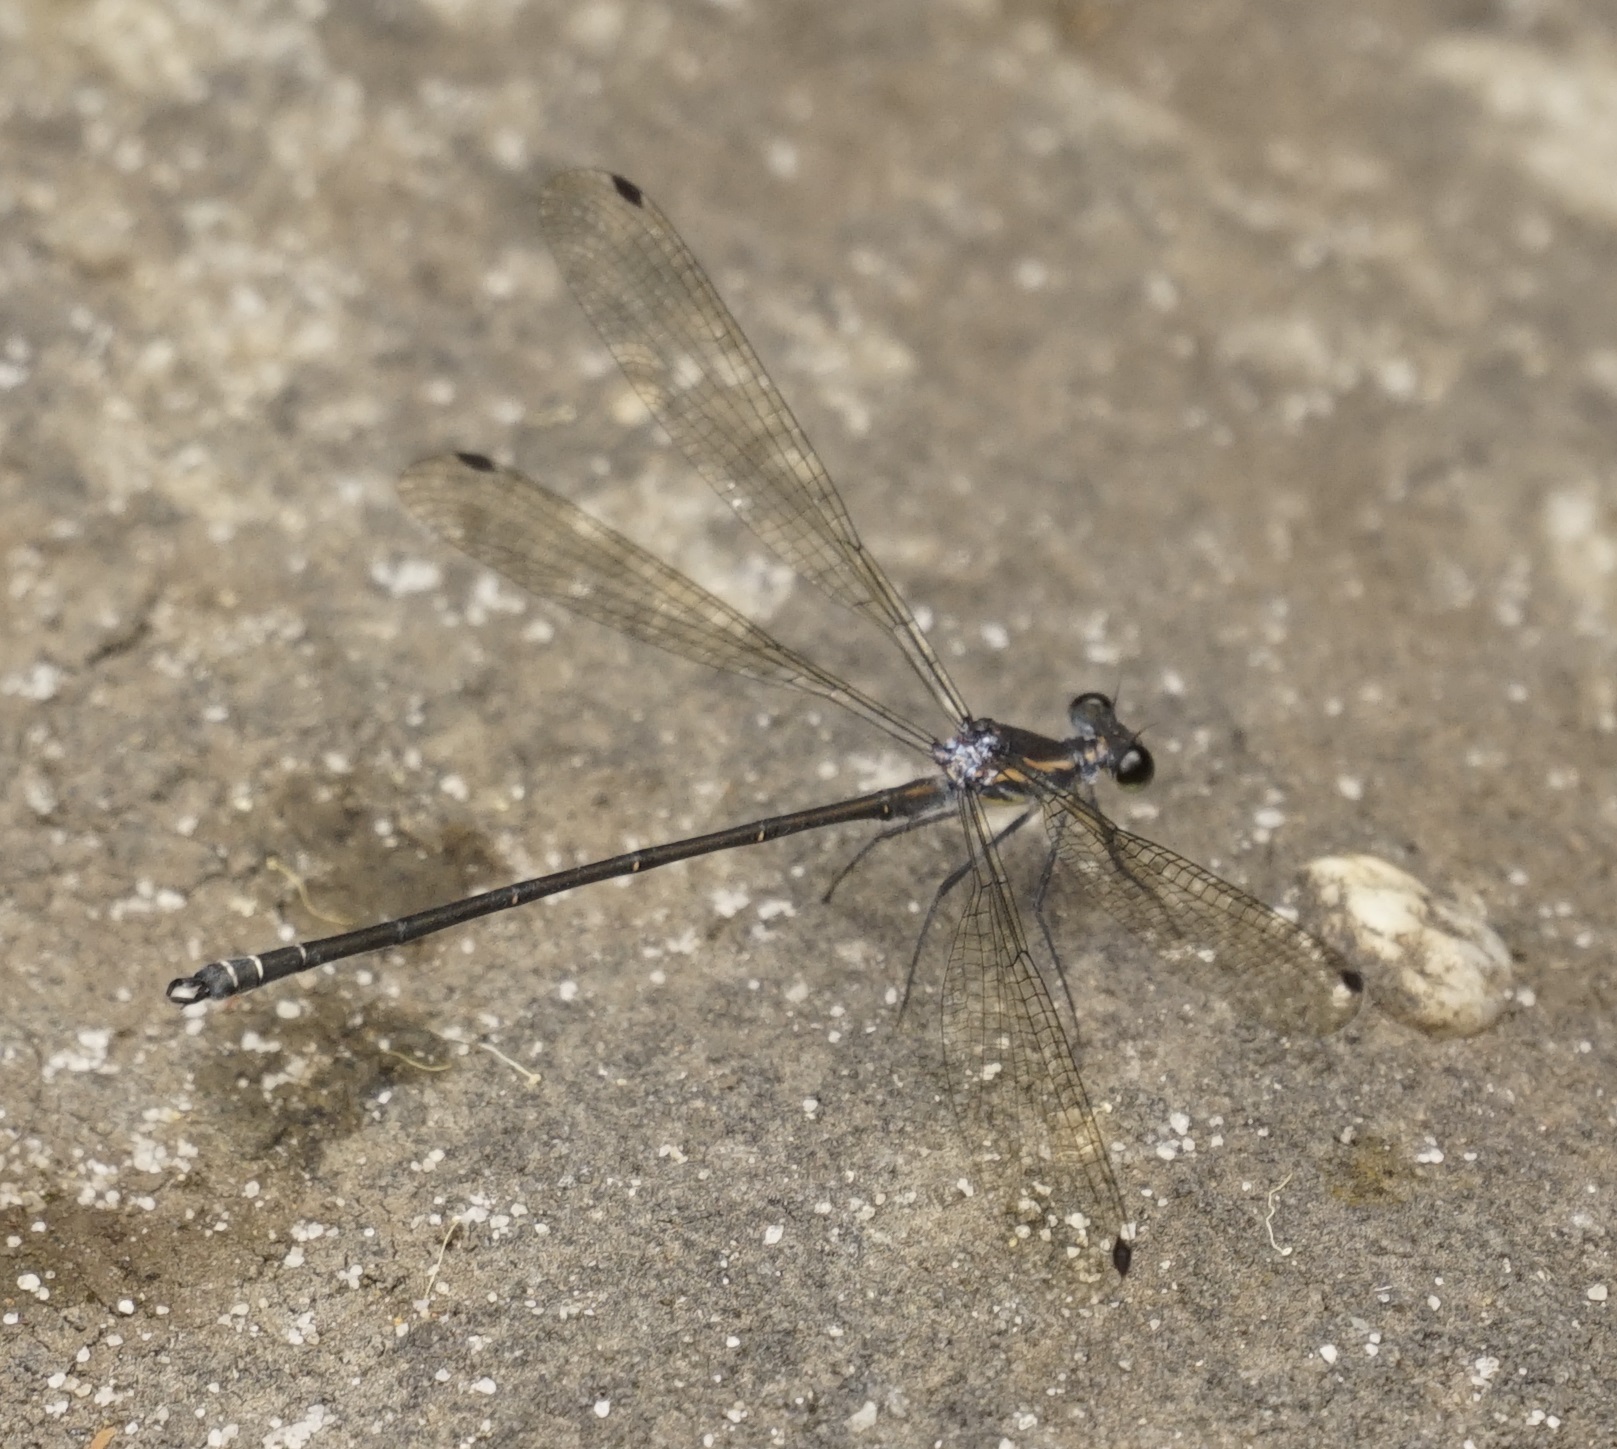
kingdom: Animalia
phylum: Arthropoda
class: Insecta
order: Odonata
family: Argiolestidae
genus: Austroargiolestes
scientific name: Austroargiolestes icteromelas
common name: Common flatwing
